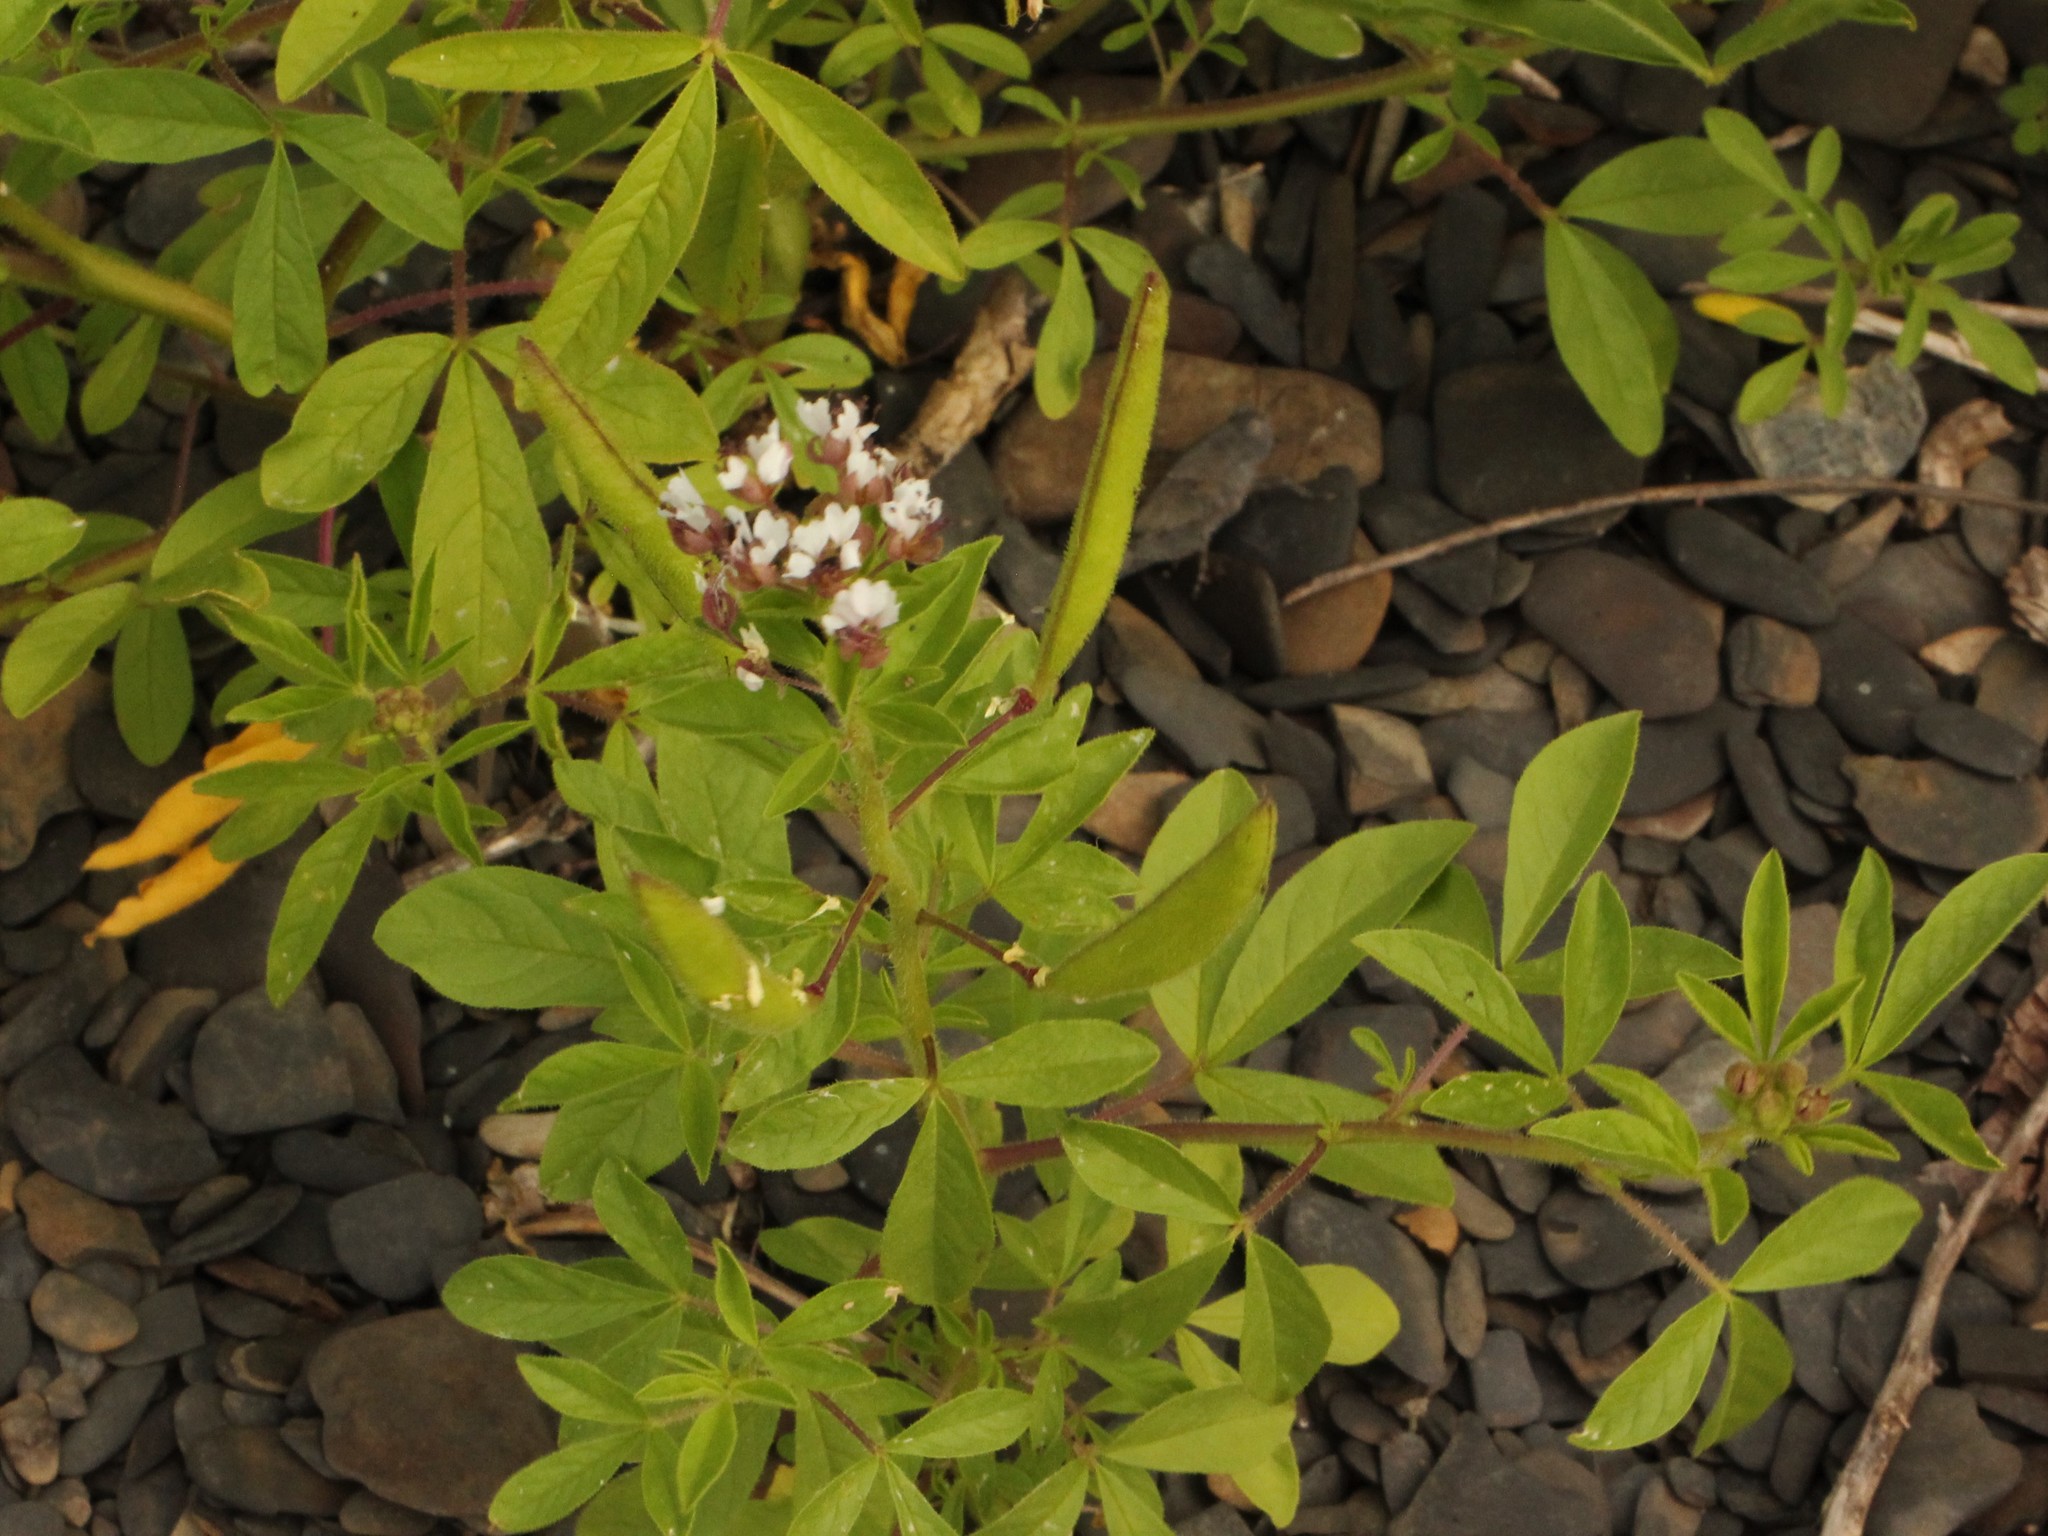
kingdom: Plantae
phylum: Tracheophyta
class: Magnoliopsida
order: Brassicales
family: Cleomaceae
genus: Polanisia
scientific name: Polanisia dodecandra
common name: Clammyweed
